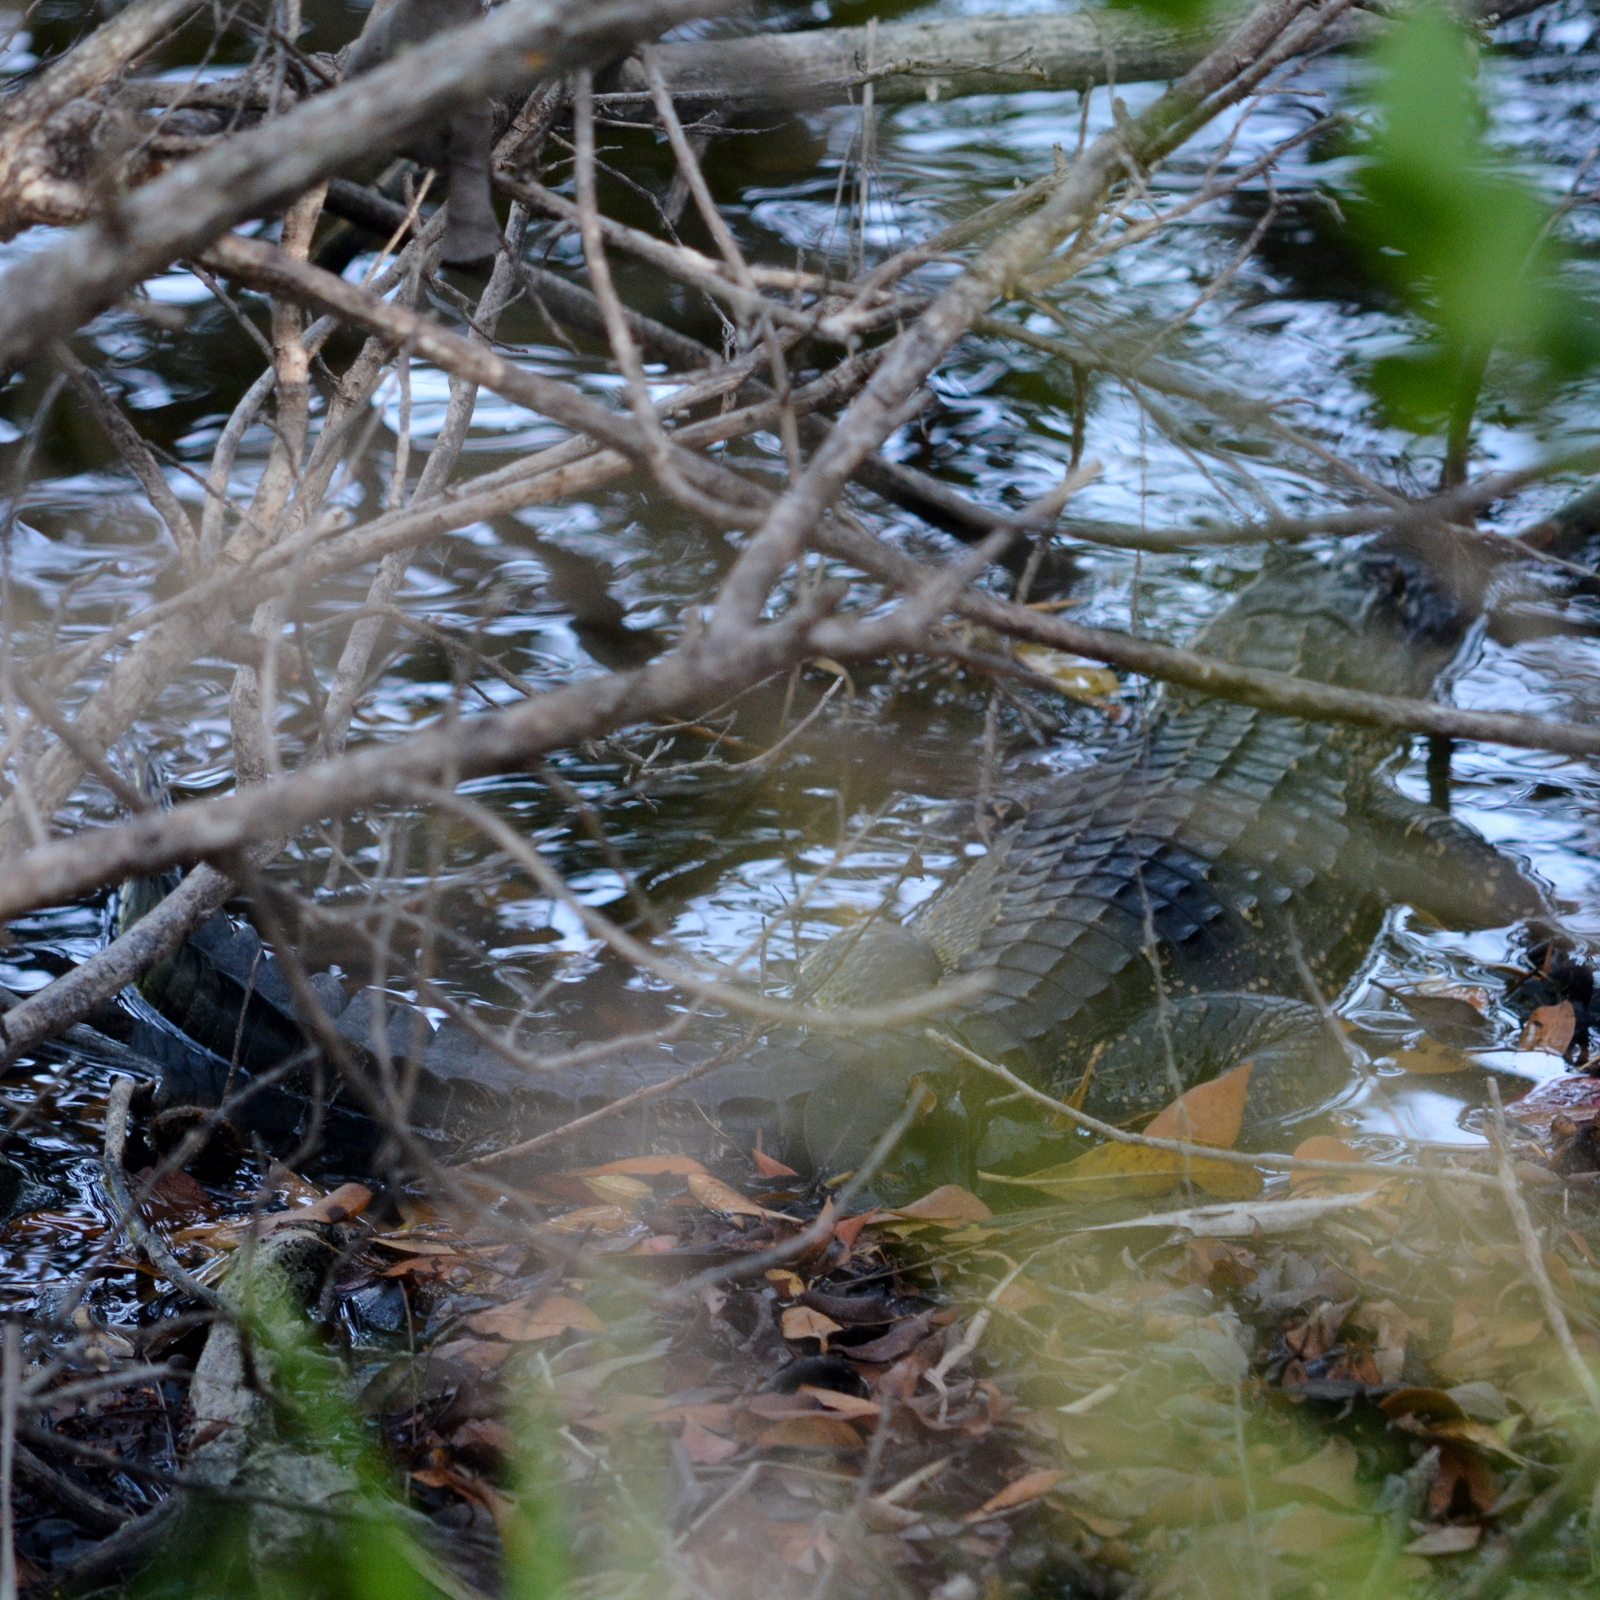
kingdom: Animalia
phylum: Chordata
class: Crocodylia
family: Alligatoridae
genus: Alligator
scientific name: Alligator mississippiensis
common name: American alligator
